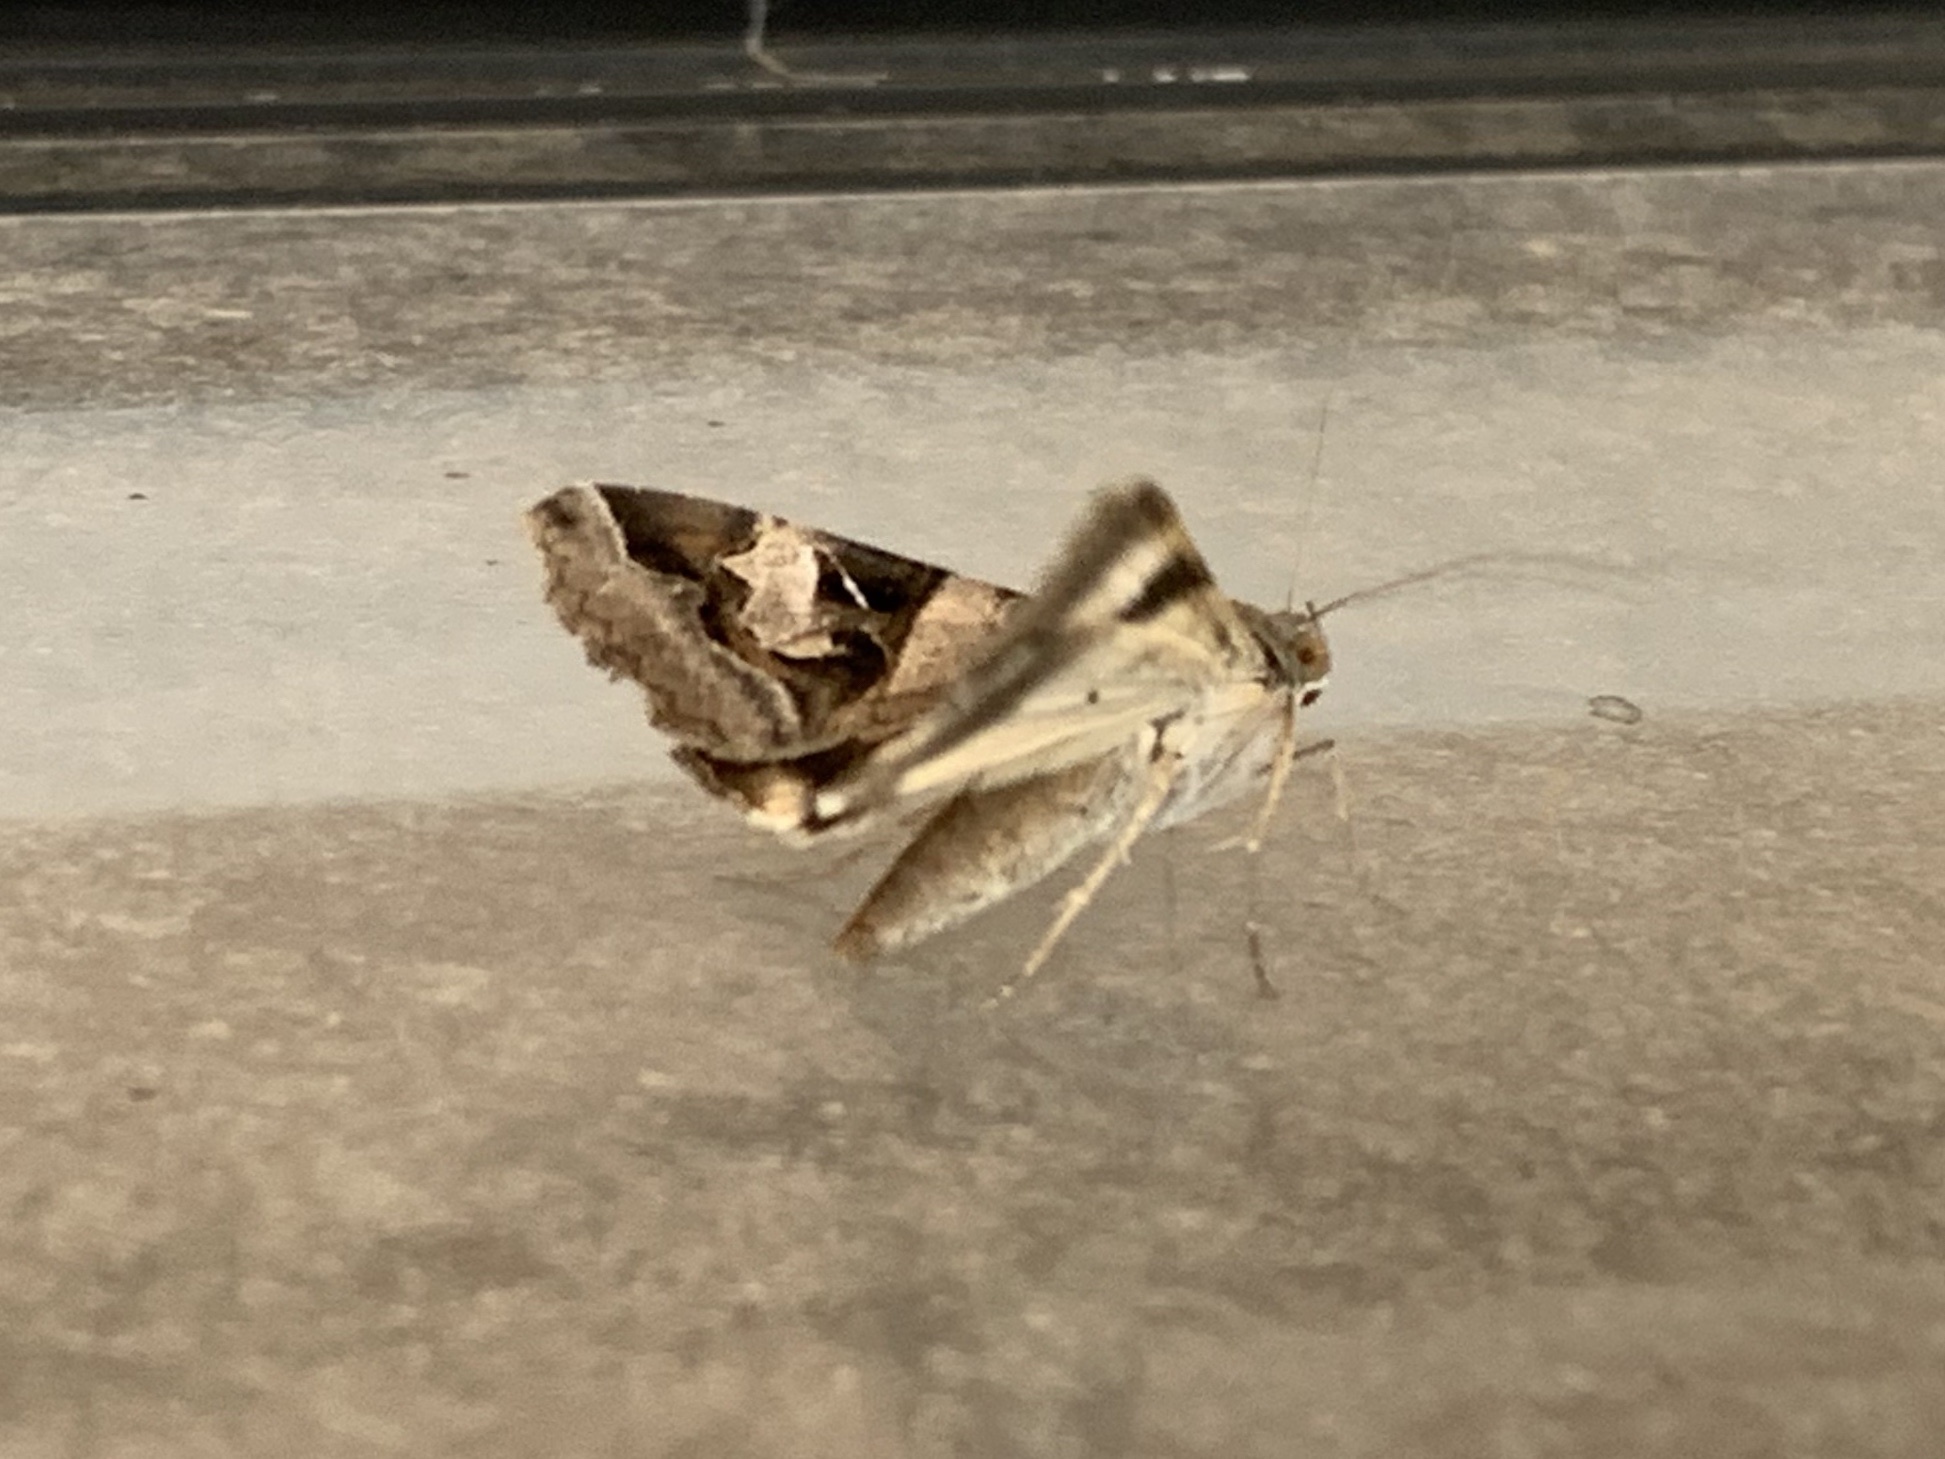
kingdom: Animalia
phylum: Arthropoda
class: Insecta
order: Lepidoptera
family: Erebidae
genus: Melipotis
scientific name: Melipotis indomita
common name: Moth
